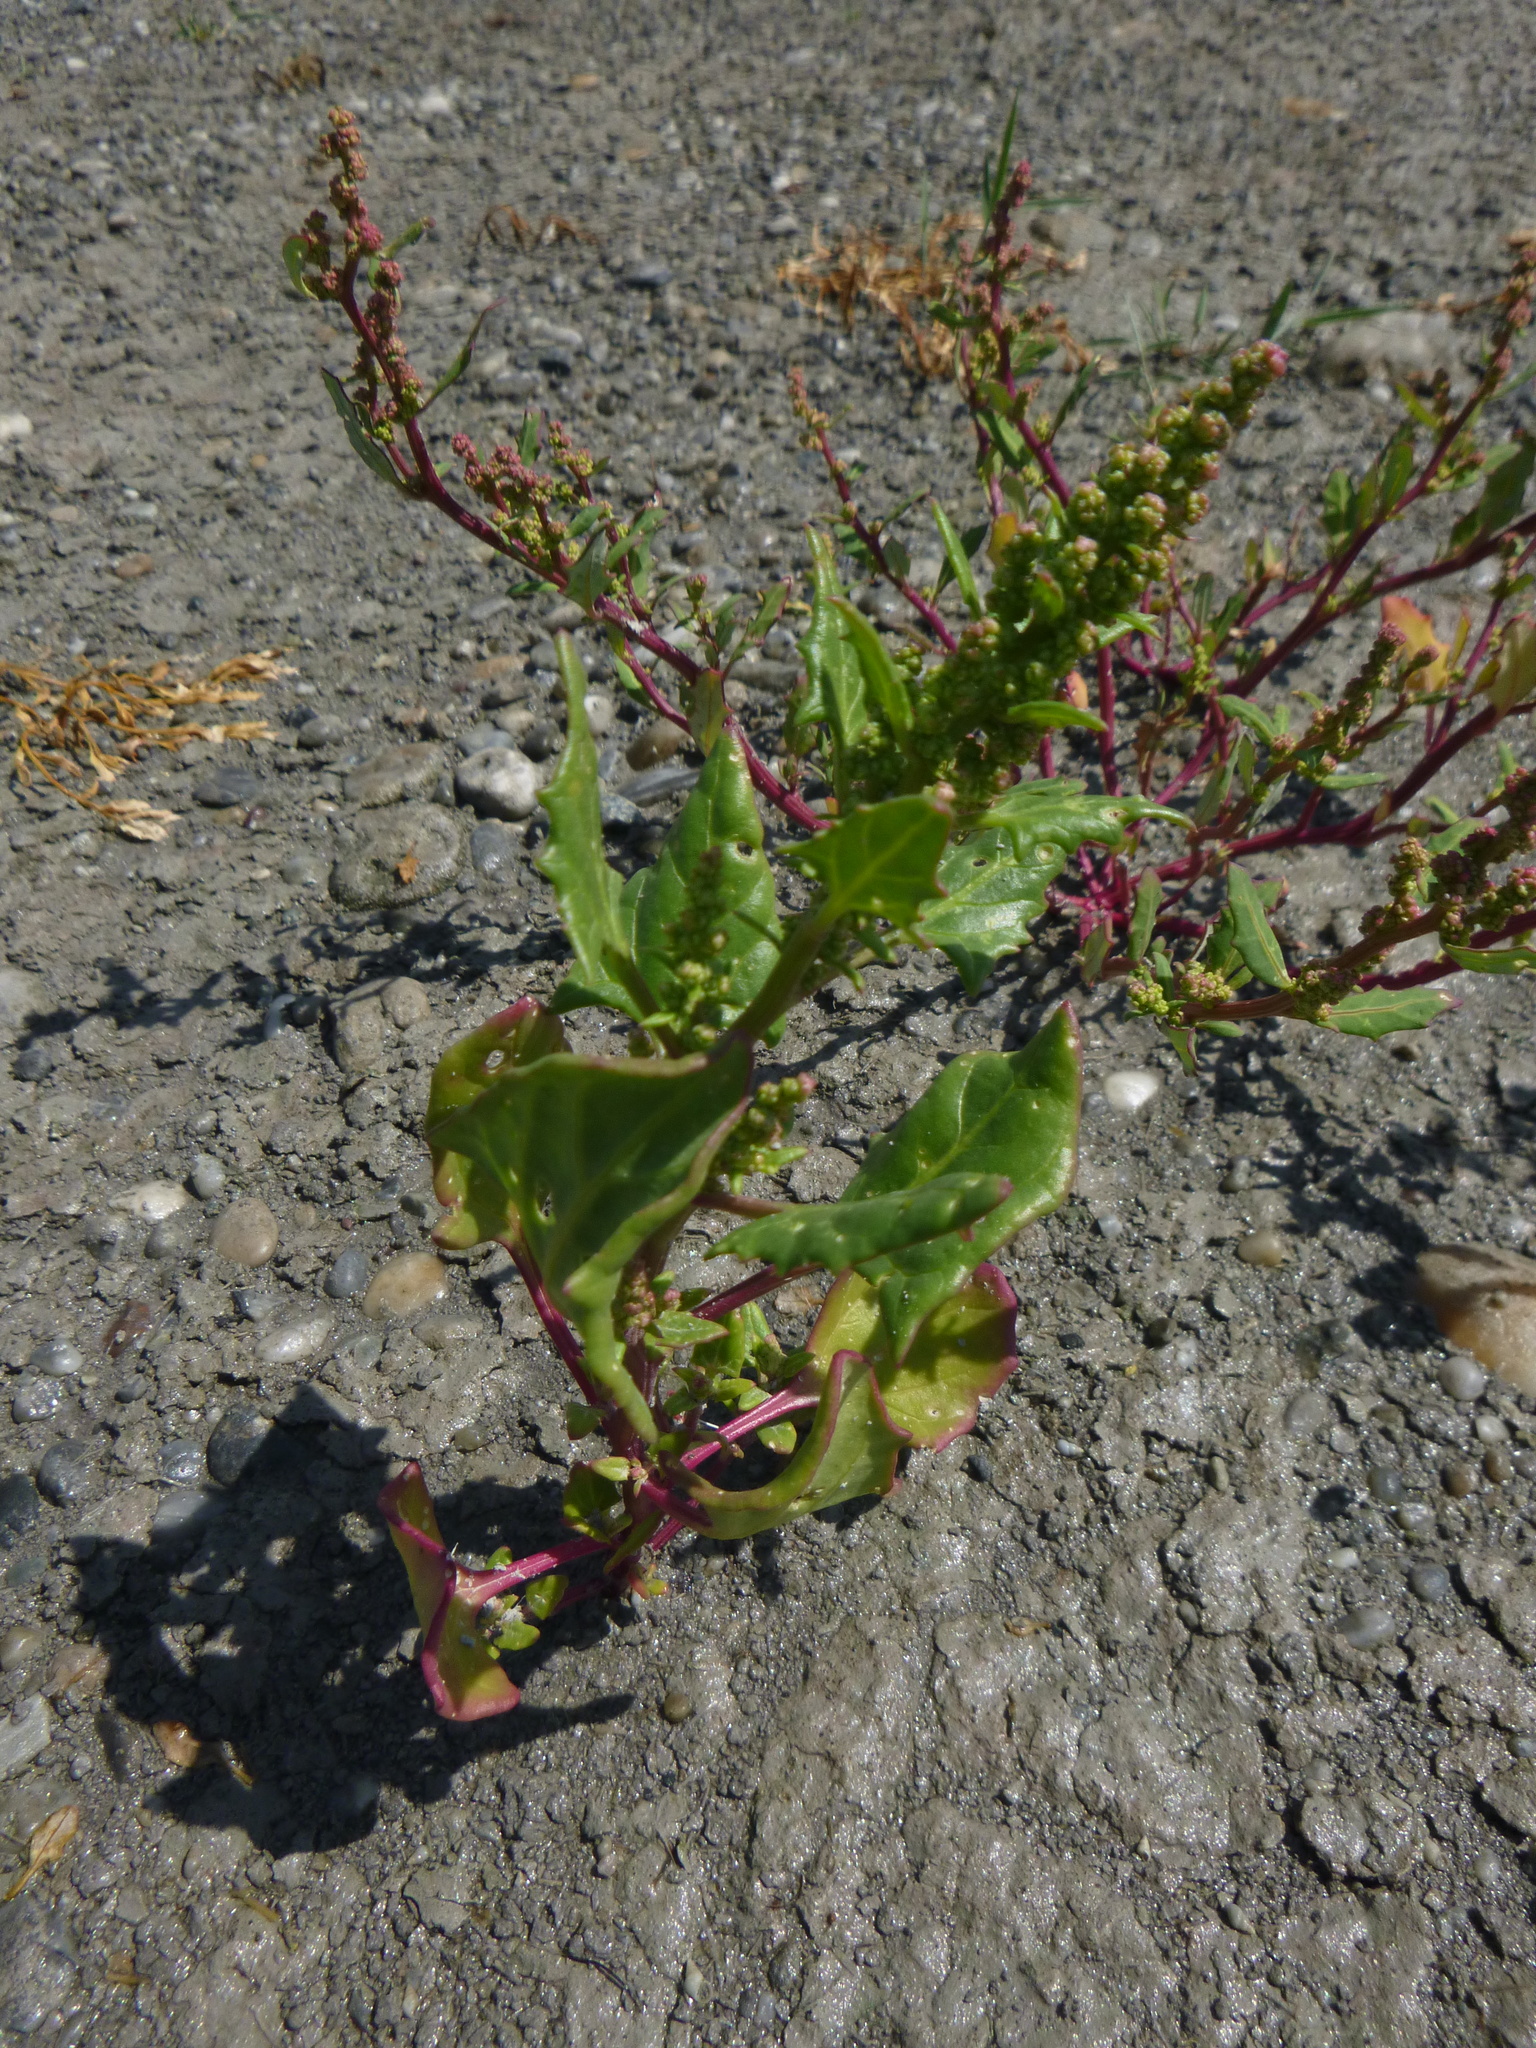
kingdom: Plantae
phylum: Tracheophyta
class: Magnoliopsida
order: Caryophyllales
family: Amaranthaceae
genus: Oxybasis
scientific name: Oxybasis chenopodioides
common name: Saltmarsh goosefoot
